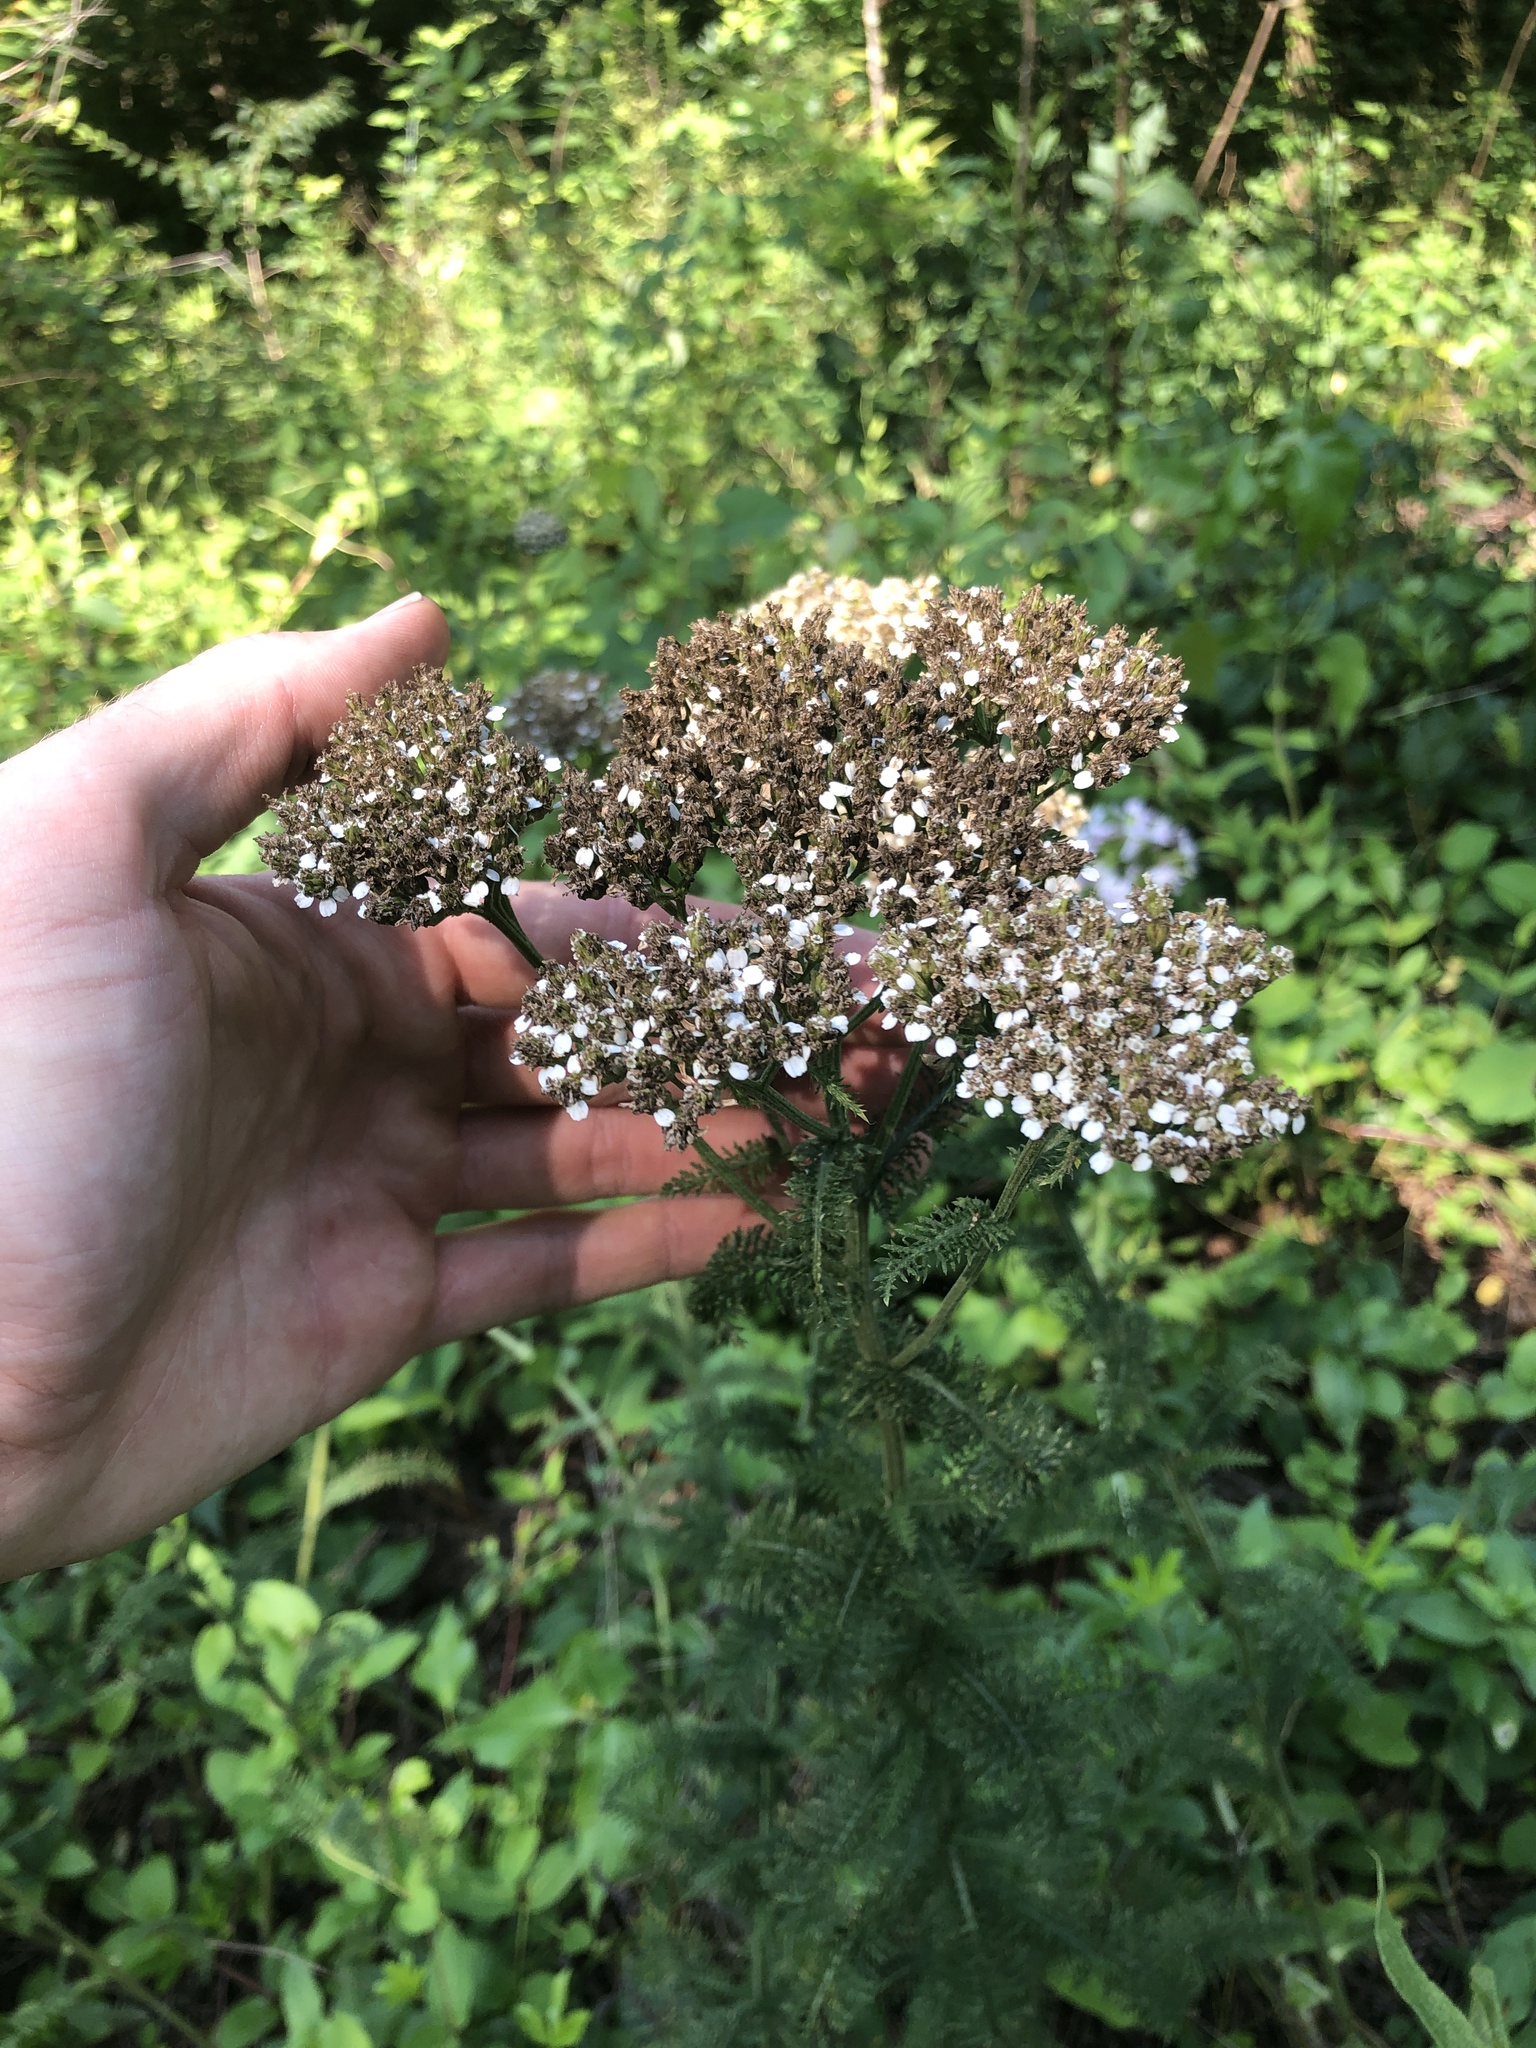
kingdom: Plantae
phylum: Tracheophyta
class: Magnoliopsida
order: Asterales
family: Asteraceae
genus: Achillea
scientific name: Achillea millefolium
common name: Yarrow
